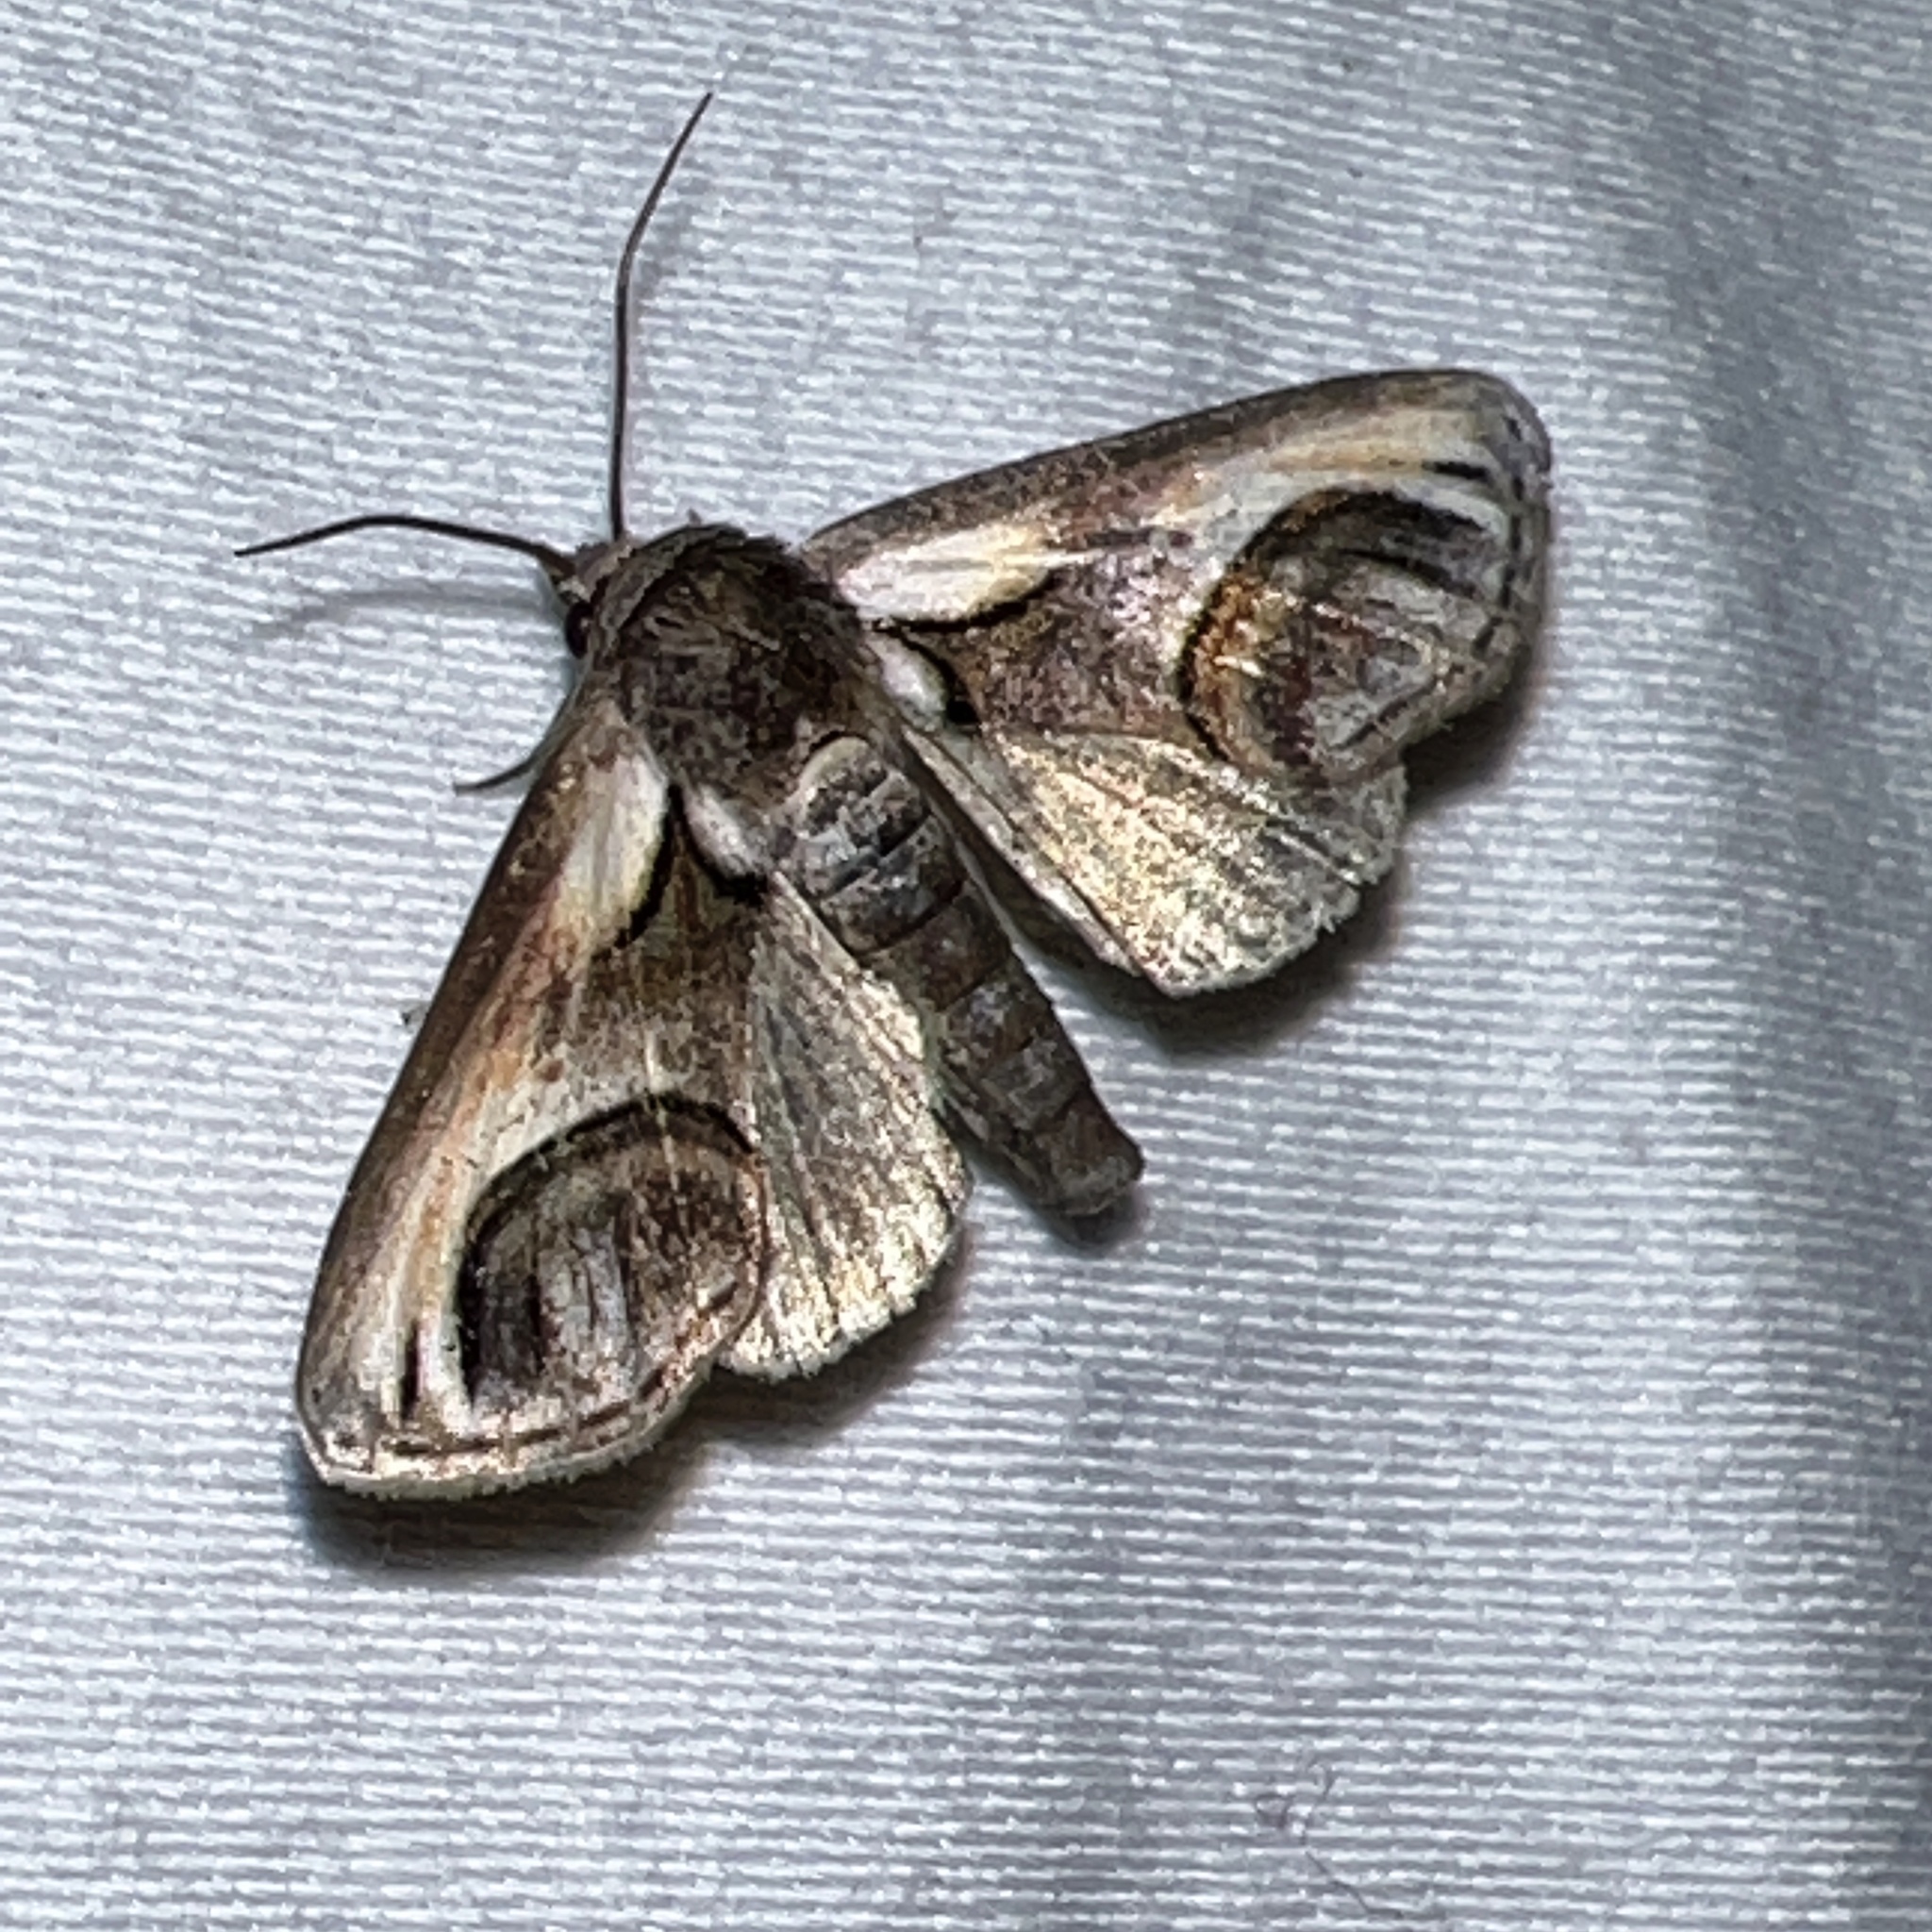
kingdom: Animalia
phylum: Arthropoda
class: Insecta
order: Lepidoptera
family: Euteliidae
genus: Paectes
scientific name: Paectes oculatrix
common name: Eyed paectes moth
